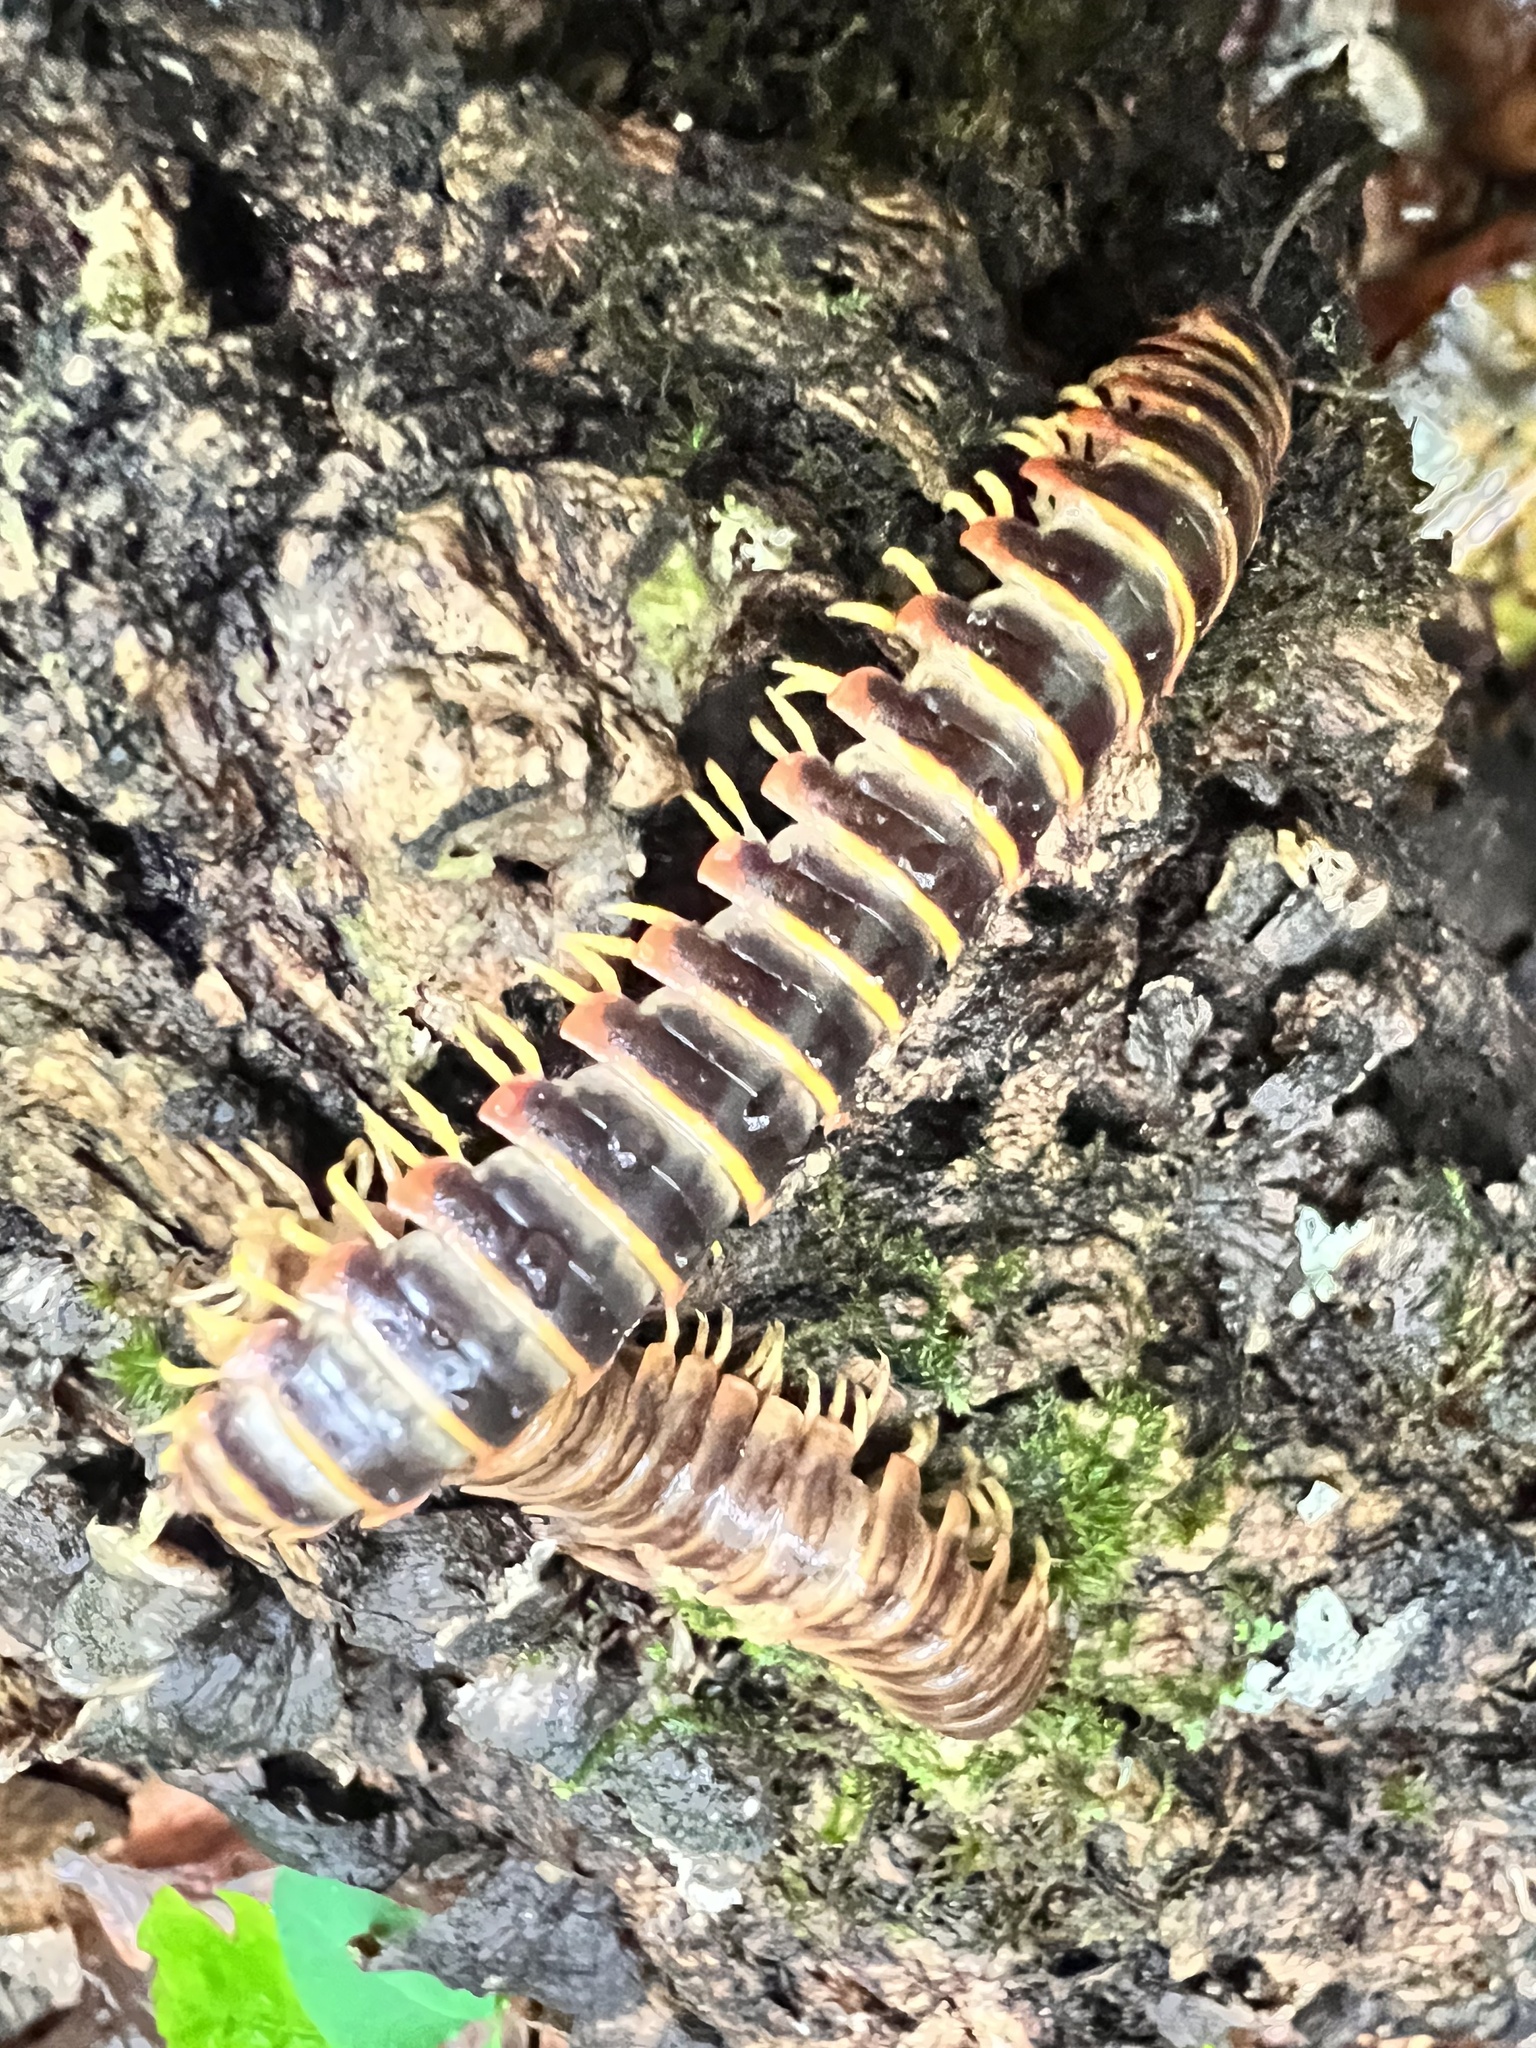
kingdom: Animalia
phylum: Arthropoda
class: Diplopoda
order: Polydesmida
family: Xystodesmidae
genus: Apheloria
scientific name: Apheloria virginiensis
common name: Black-and-gold flat millipede
